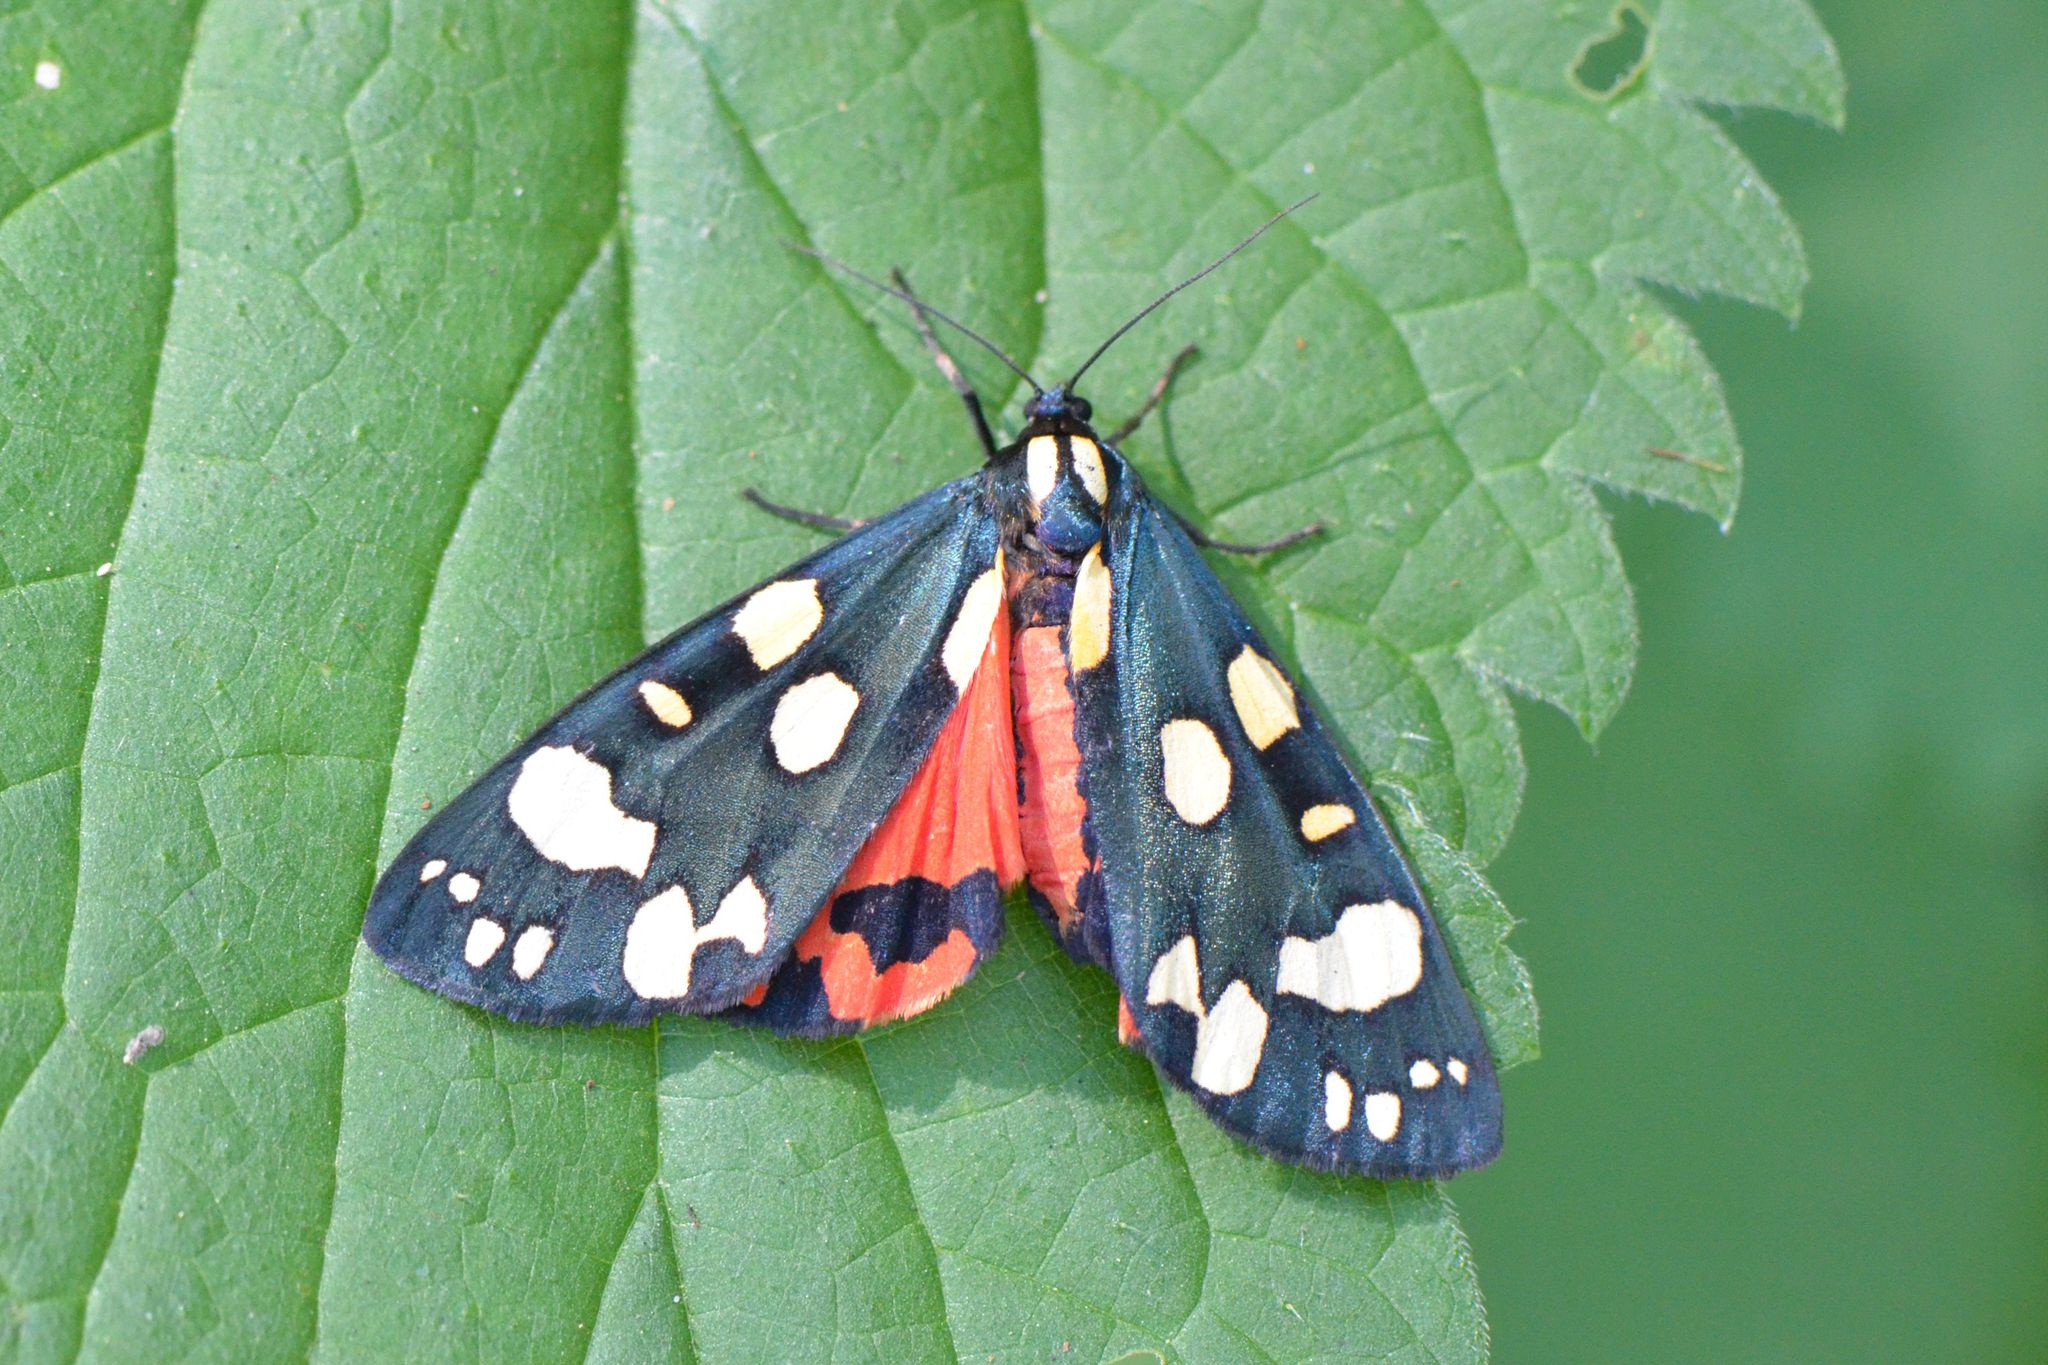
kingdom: Animalia
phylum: Arthropoda
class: Insecta
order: Lepidoptera
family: Erebidae
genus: Callimorpha
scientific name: Callimorpha dominula
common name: Scarlet tiger
